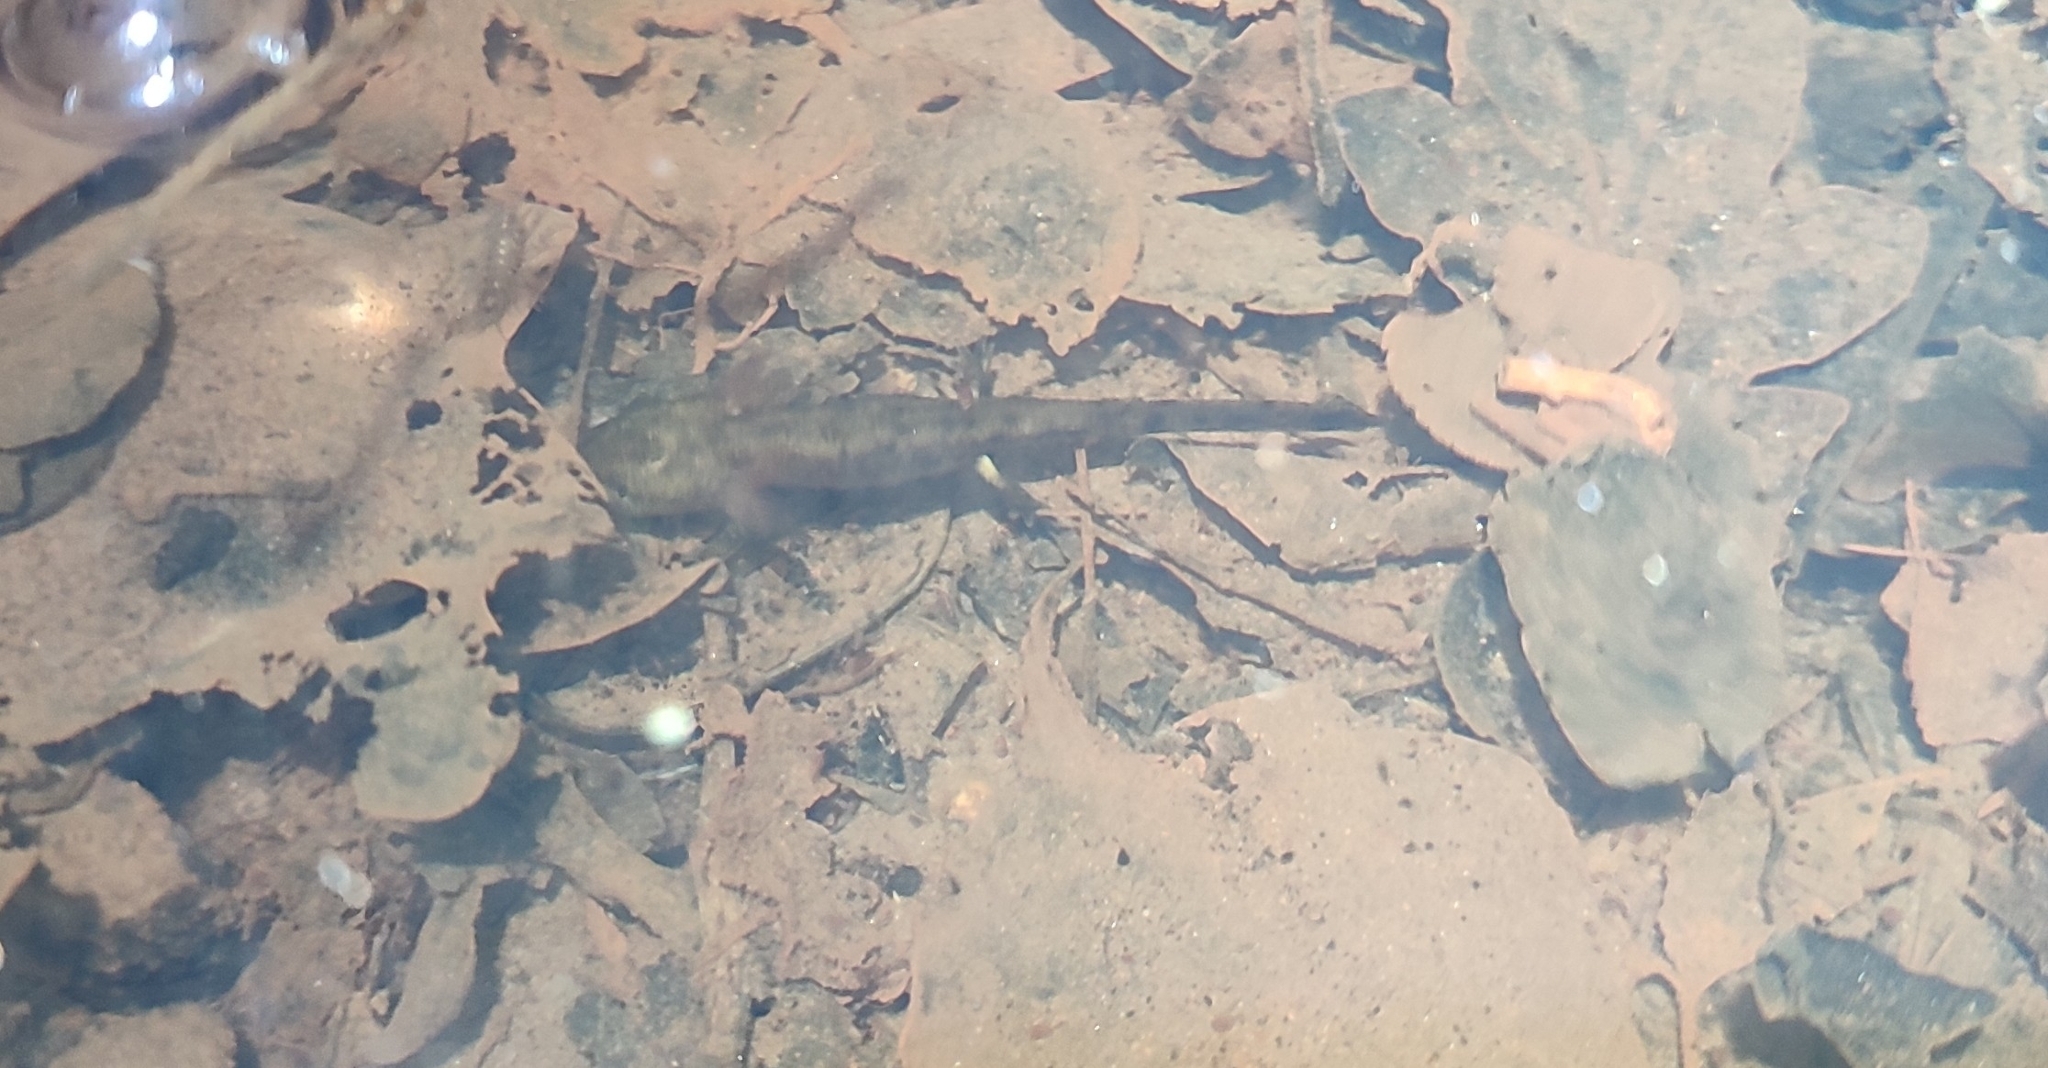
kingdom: Animalia
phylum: Chordata
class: Amphibia
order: Caudata
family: Salamandridae
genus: Salamandra
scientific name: Salamandra salamandra
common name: Fire salamander
